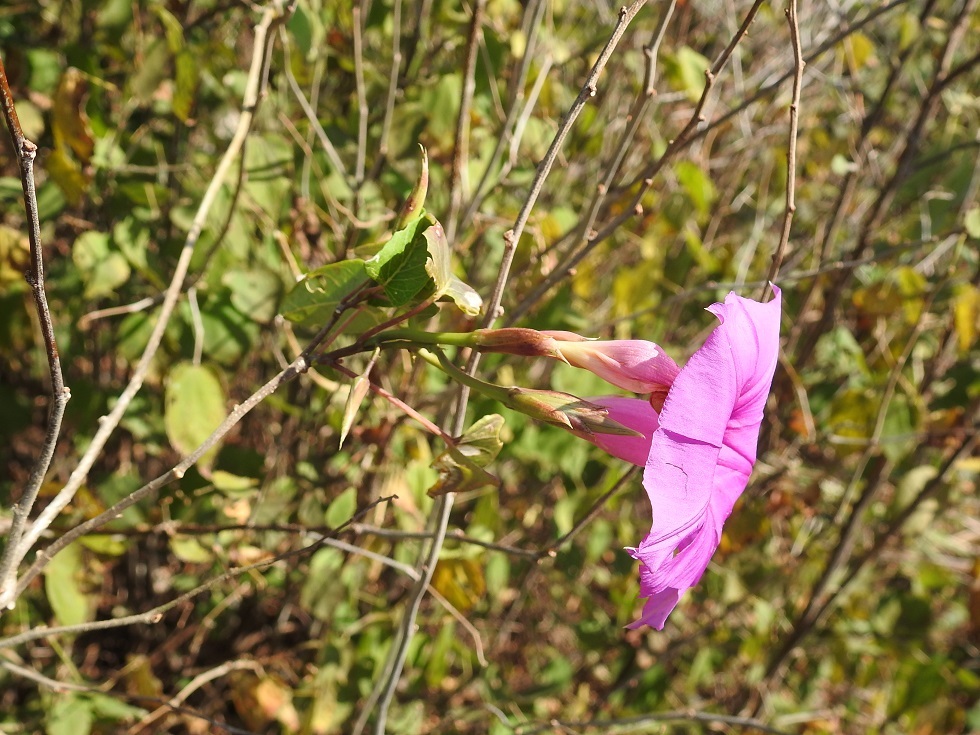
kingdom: Plantae
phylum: Tracheophyta
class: Magnoliopsida
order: Solanales
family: Convolvulaceae
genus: Ipomoea
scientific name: Ipomoea bernoulliana
